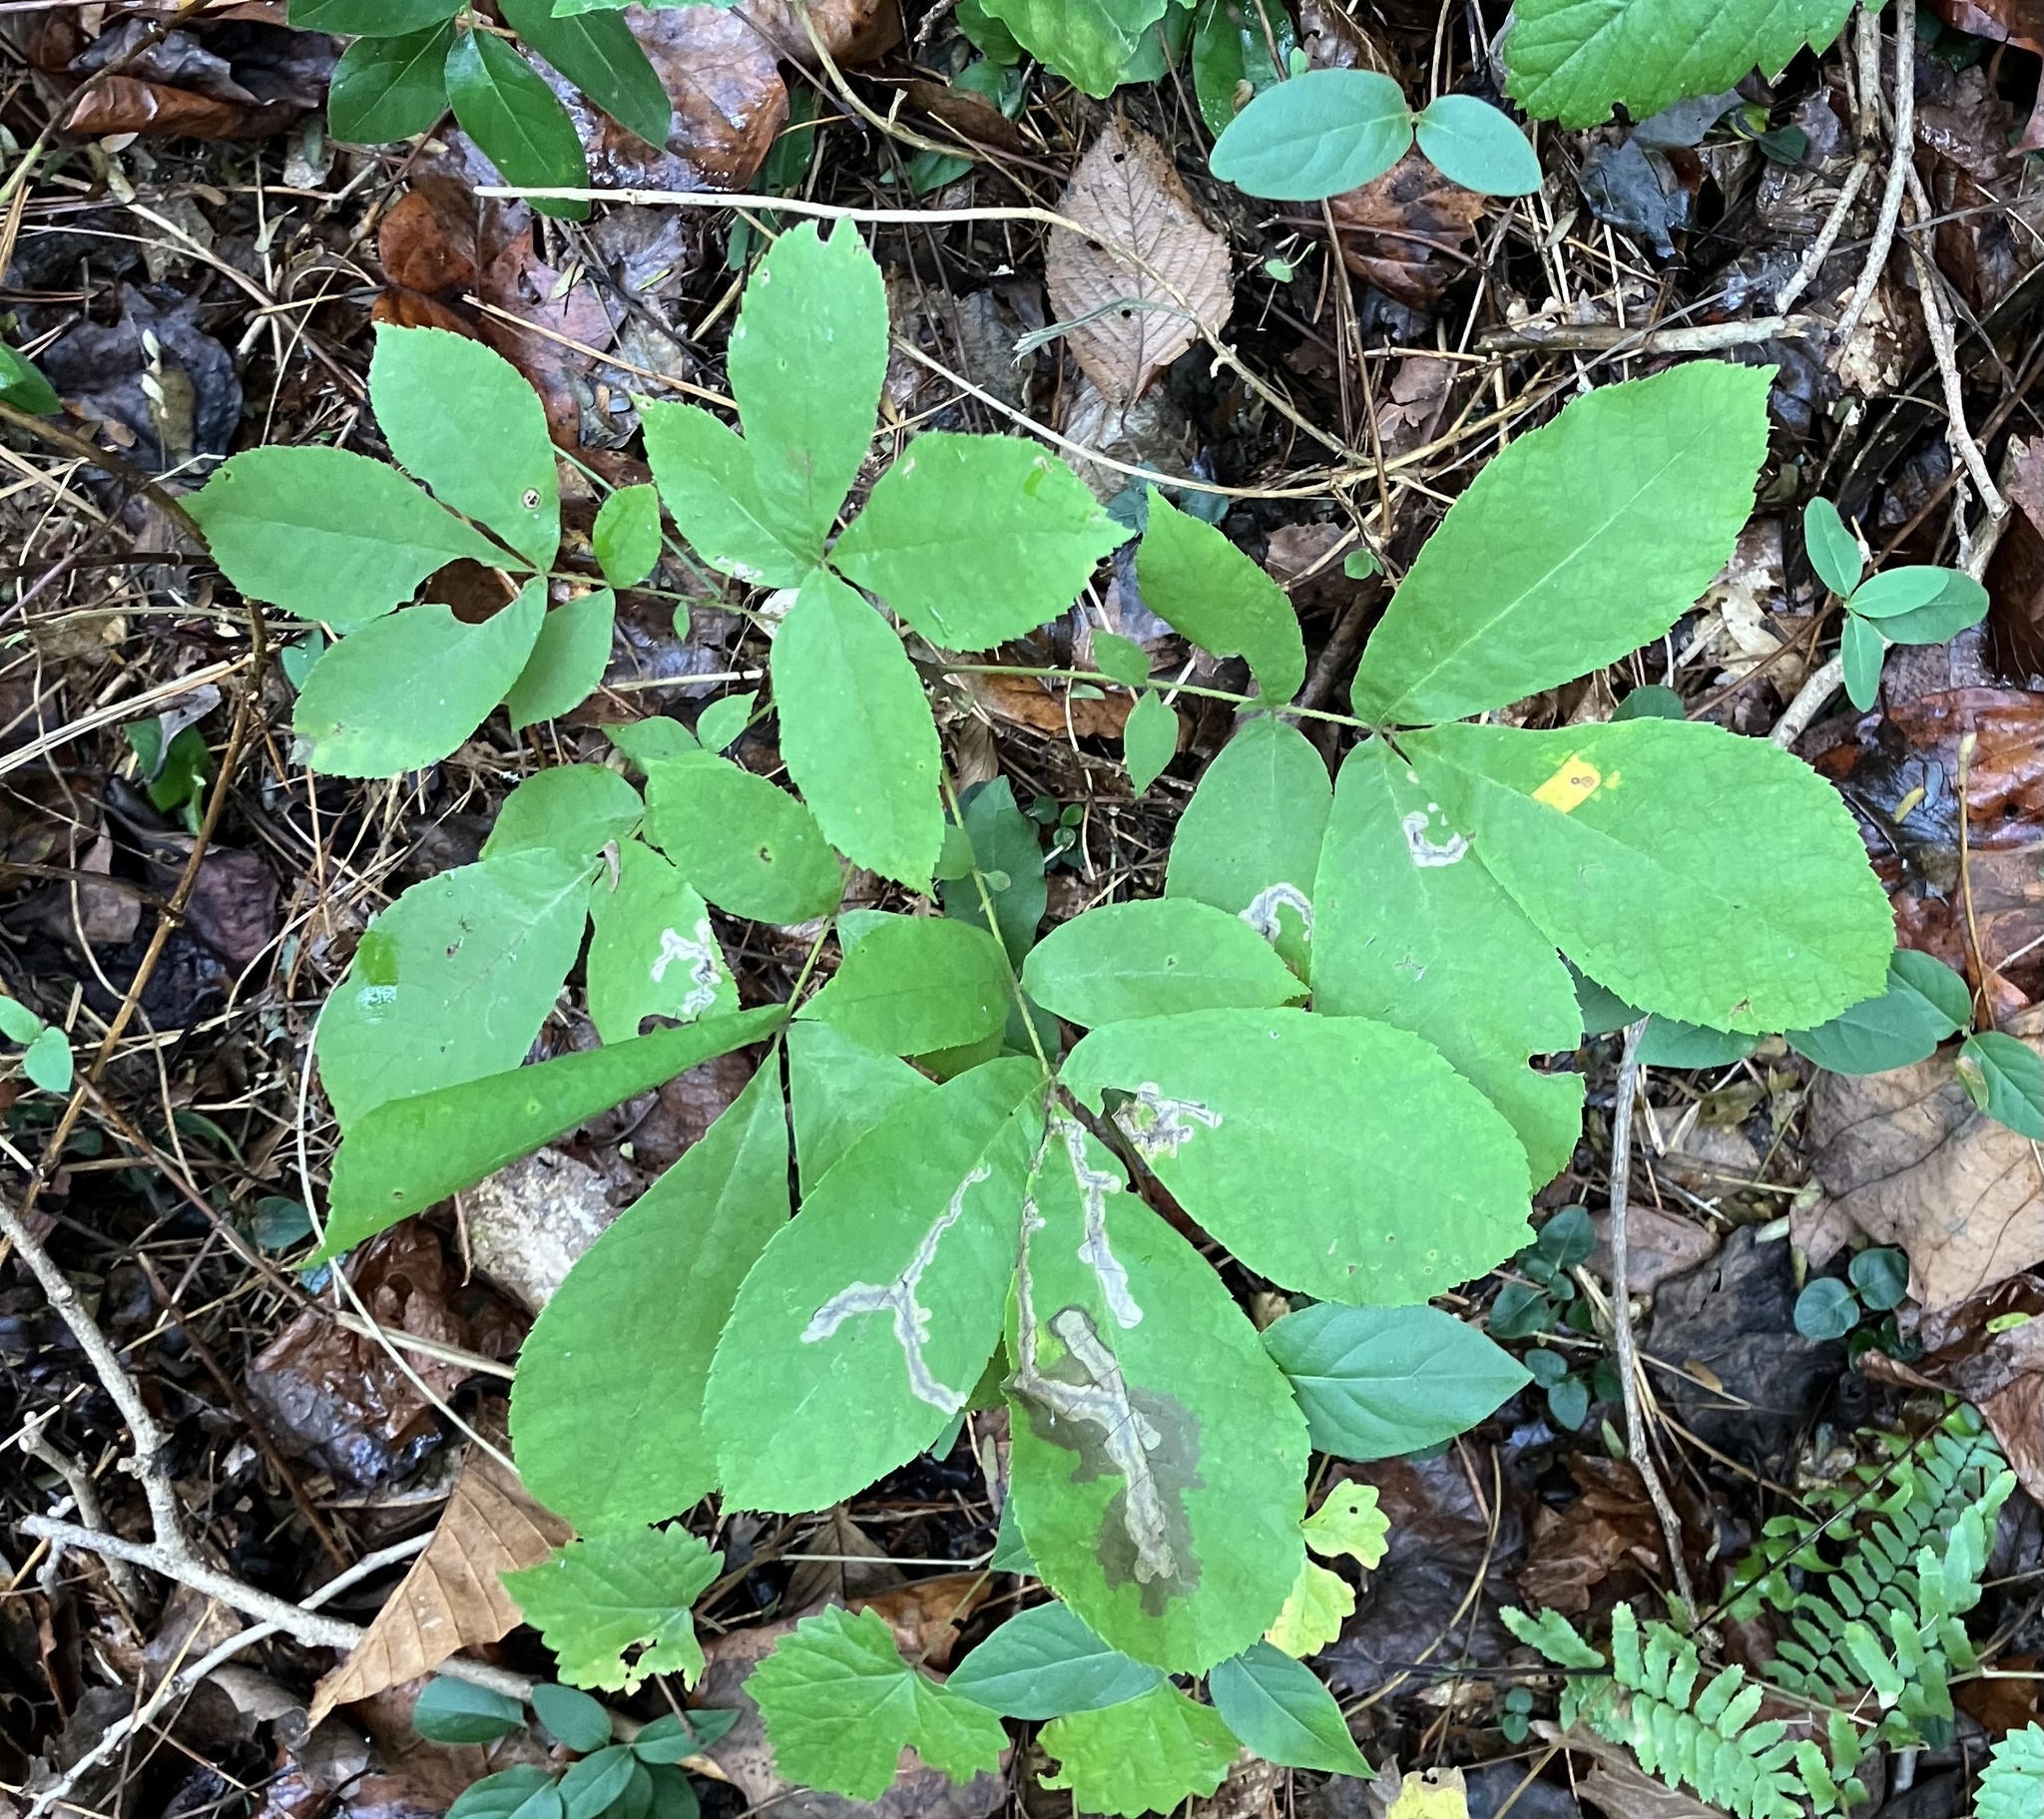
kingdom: Animalia
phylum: Arthropoda
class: Insecta
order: Lepidoptera
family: Gracillariidae
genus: Cameraria
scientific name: Cameraria caryaefoliella
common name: Pecan leafminer moth
